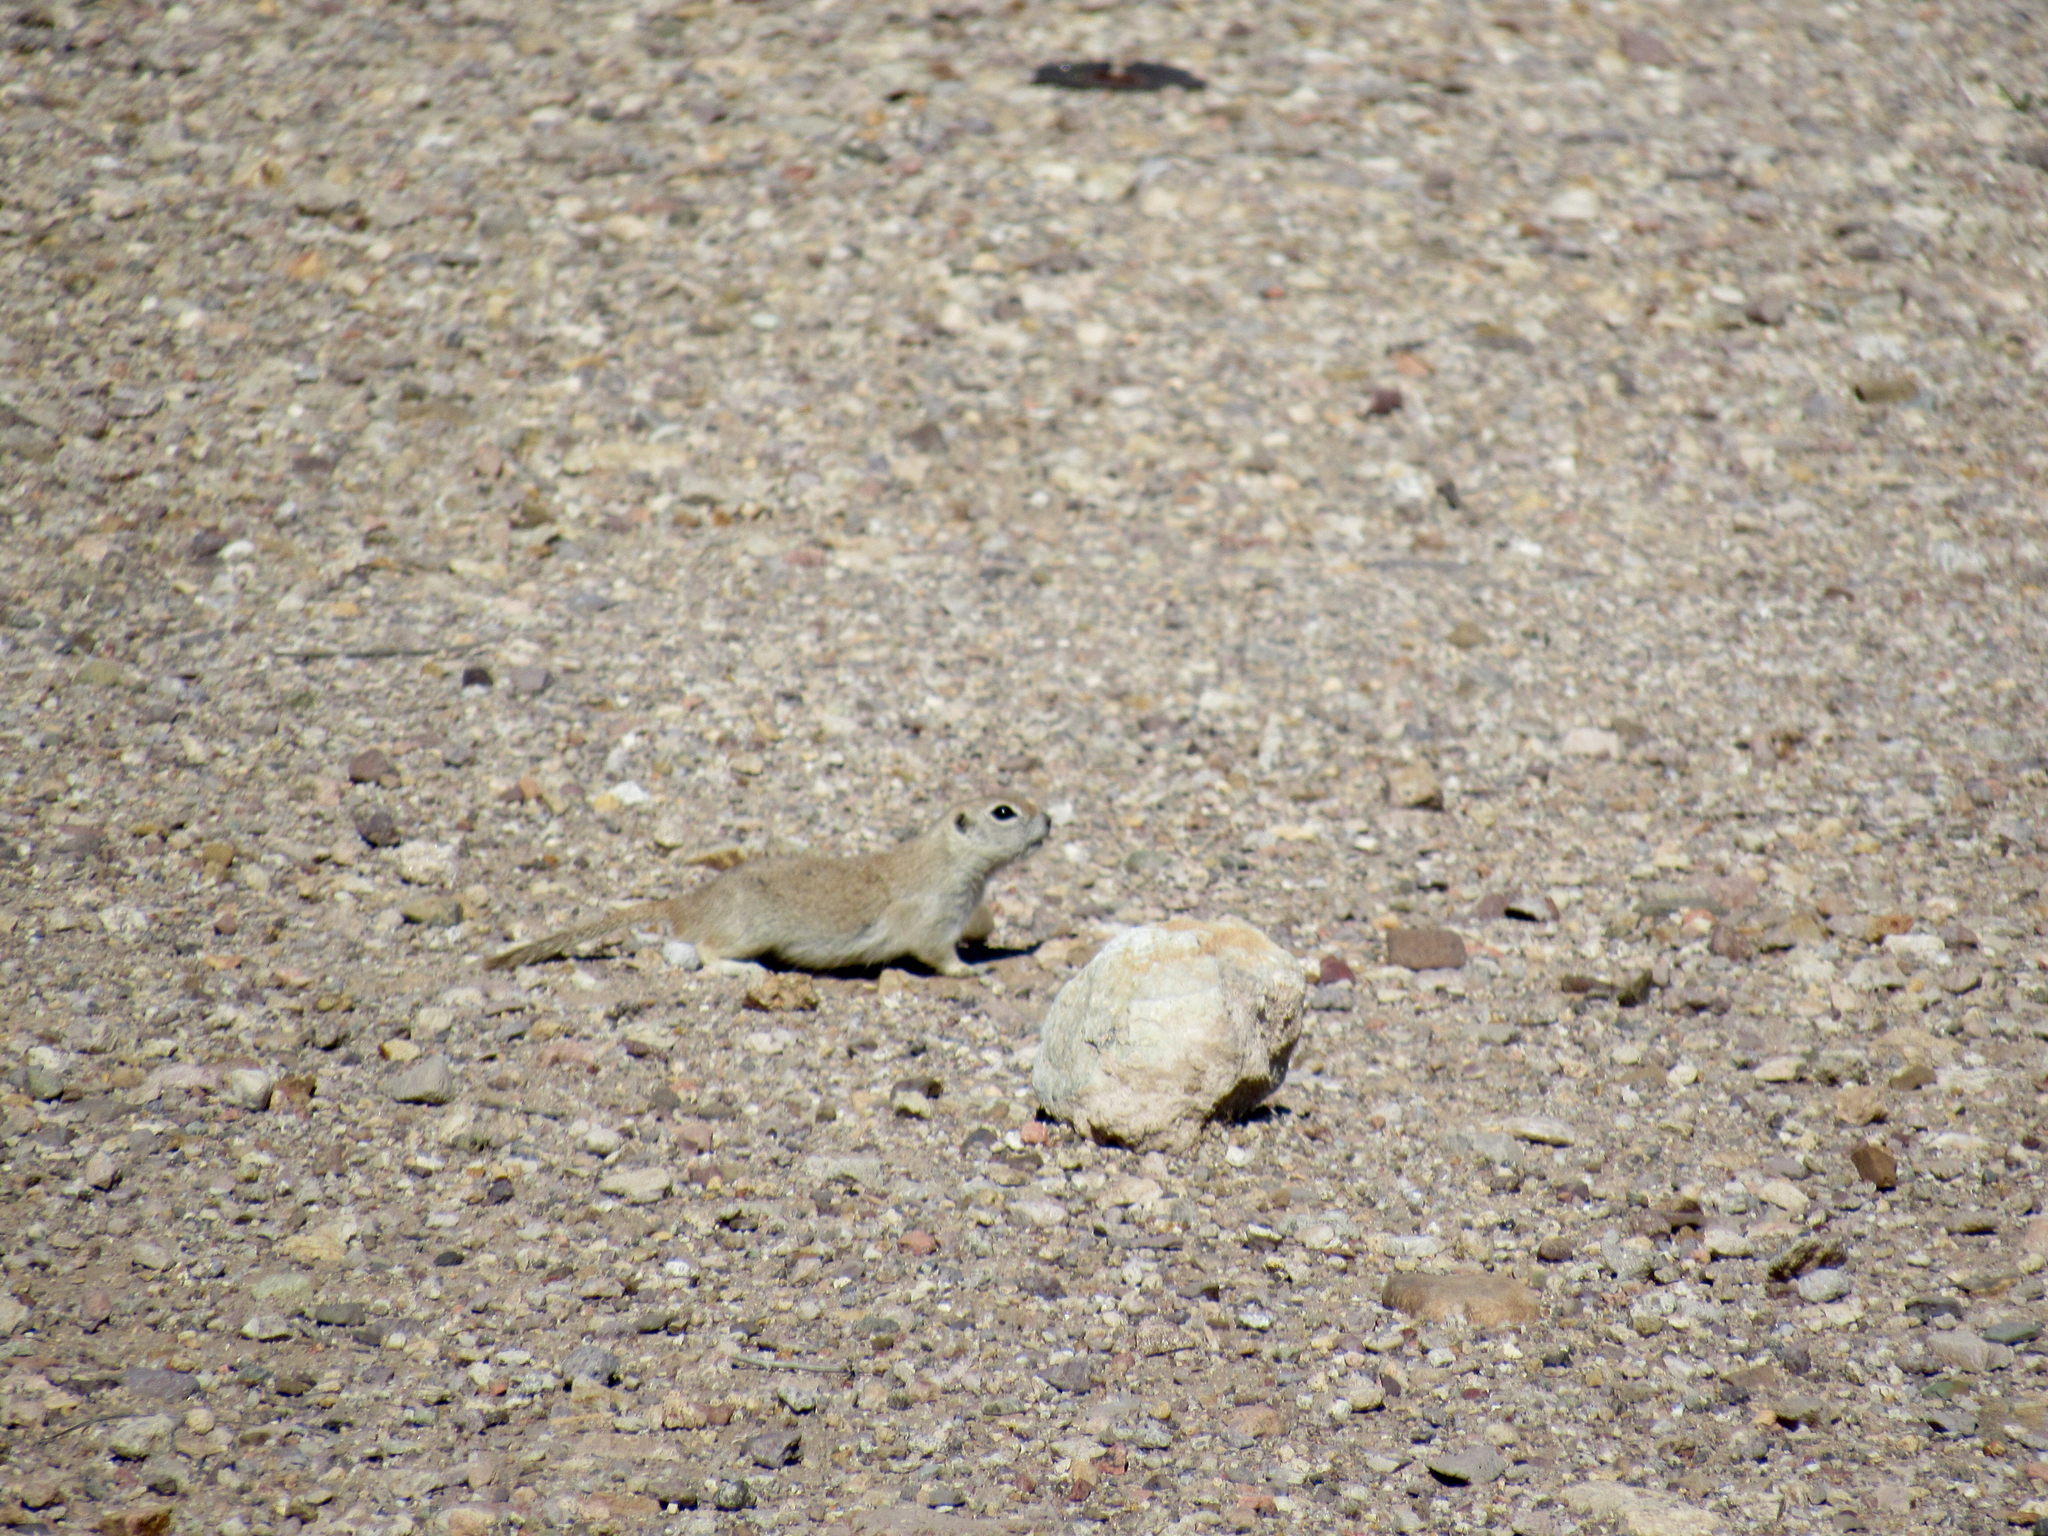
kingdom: Animalia
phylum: Chordata
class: Mammalia
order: Rodentia
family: Sciuridae
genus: Xerospermophilus
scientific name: Xerospermophilus tereticaudus
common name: Round-tailed ground squirrel
